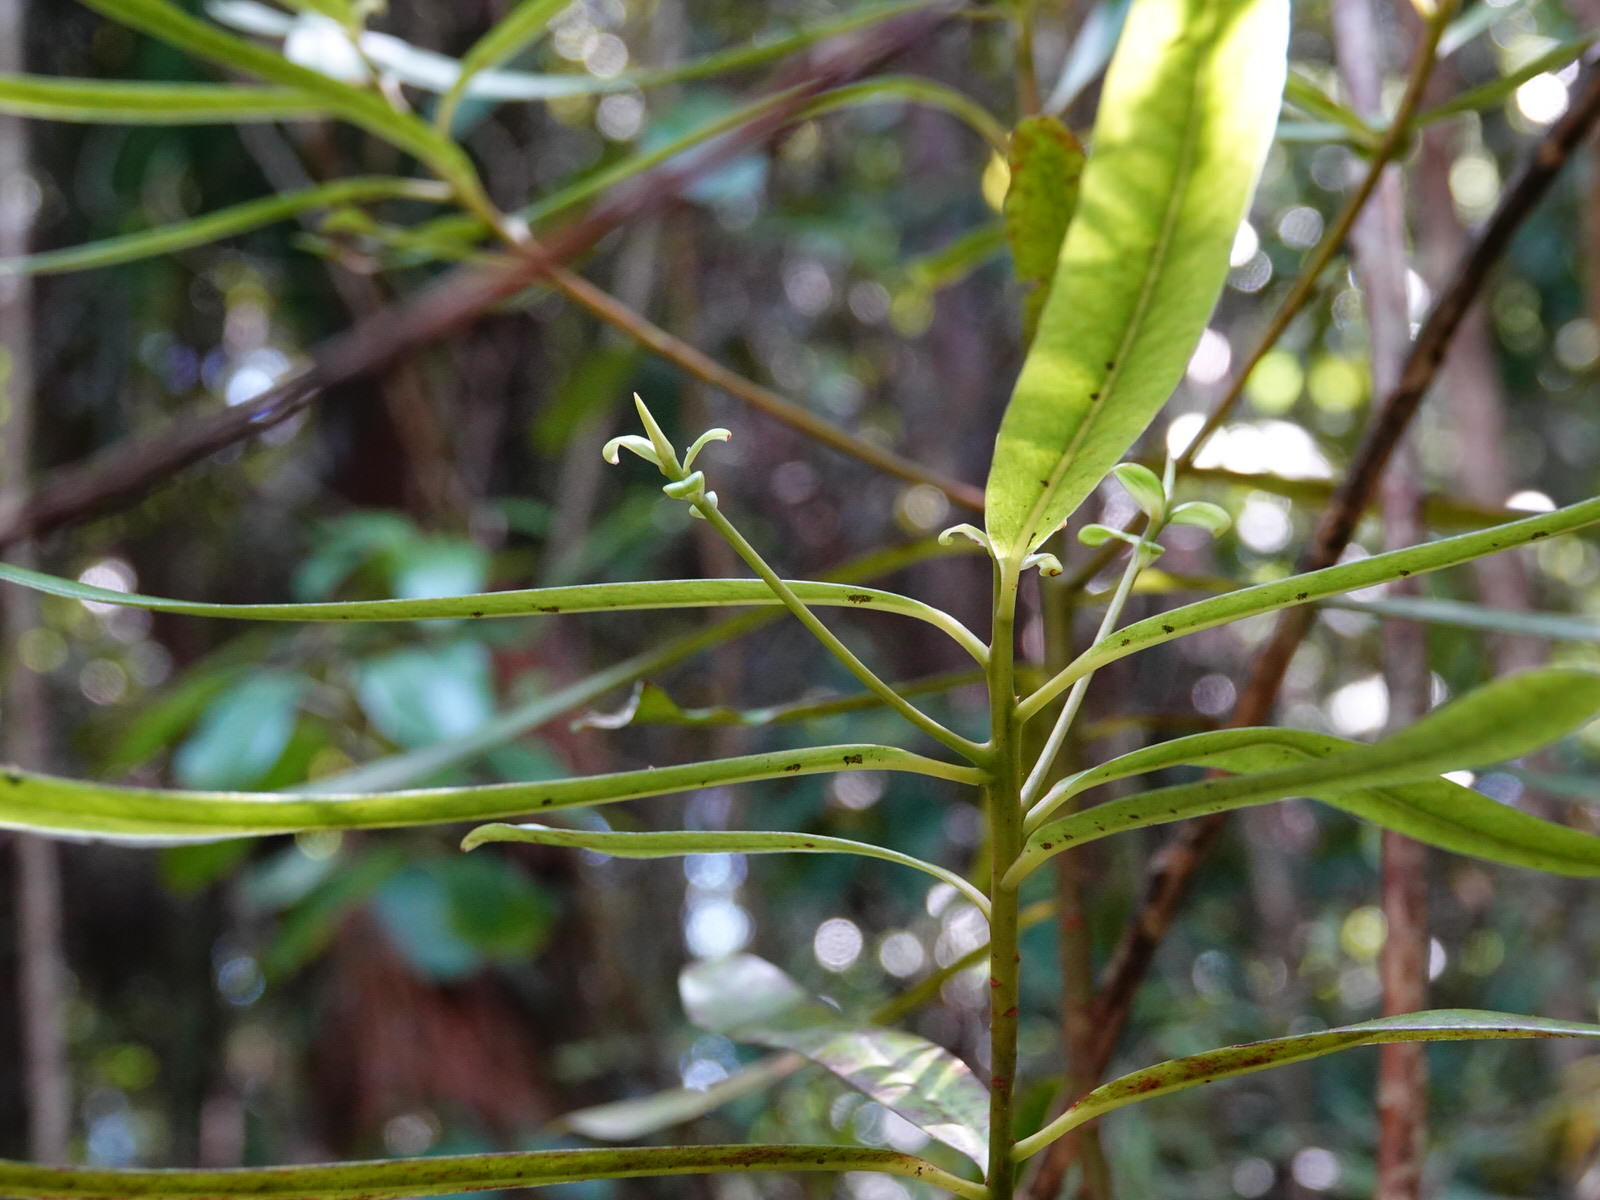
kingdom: Plantae
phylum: Tracheophyta
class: Magnoliopsida
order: Ericales
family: Primulaceae
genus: Myrsine
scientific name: Myrsine salicina
